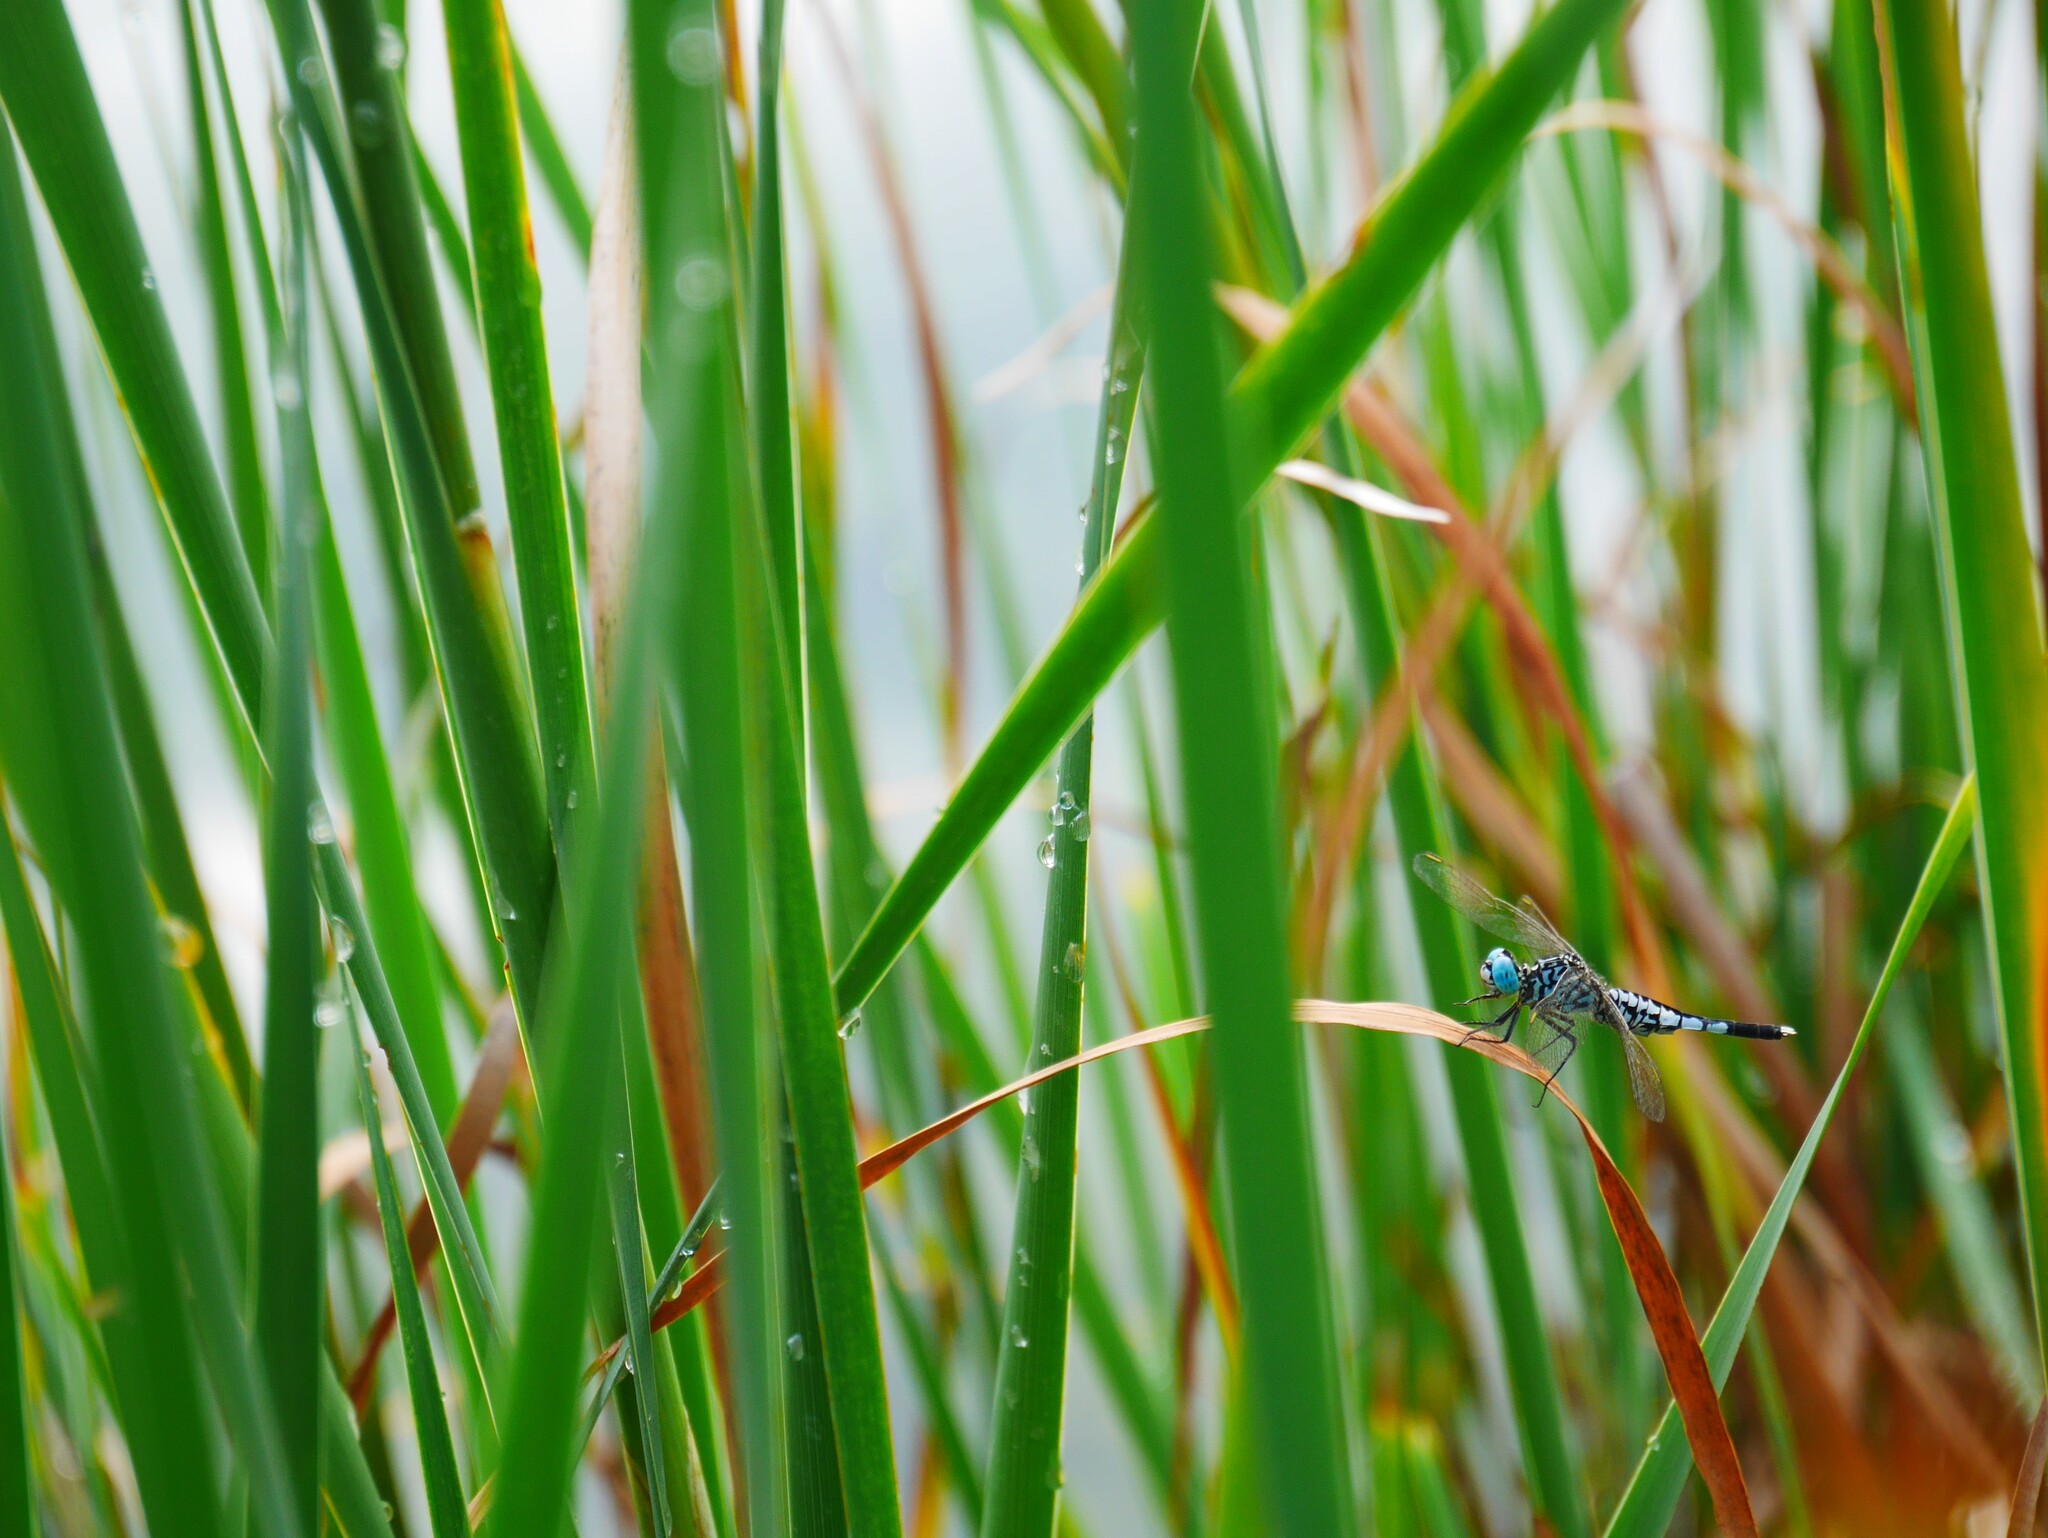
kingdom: Animalia
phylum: Arthropoda
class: Insecta
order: Odonata
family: Libellulidae
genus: Acisoma
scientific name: Acisoma panorpoides
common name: Asian pintail
